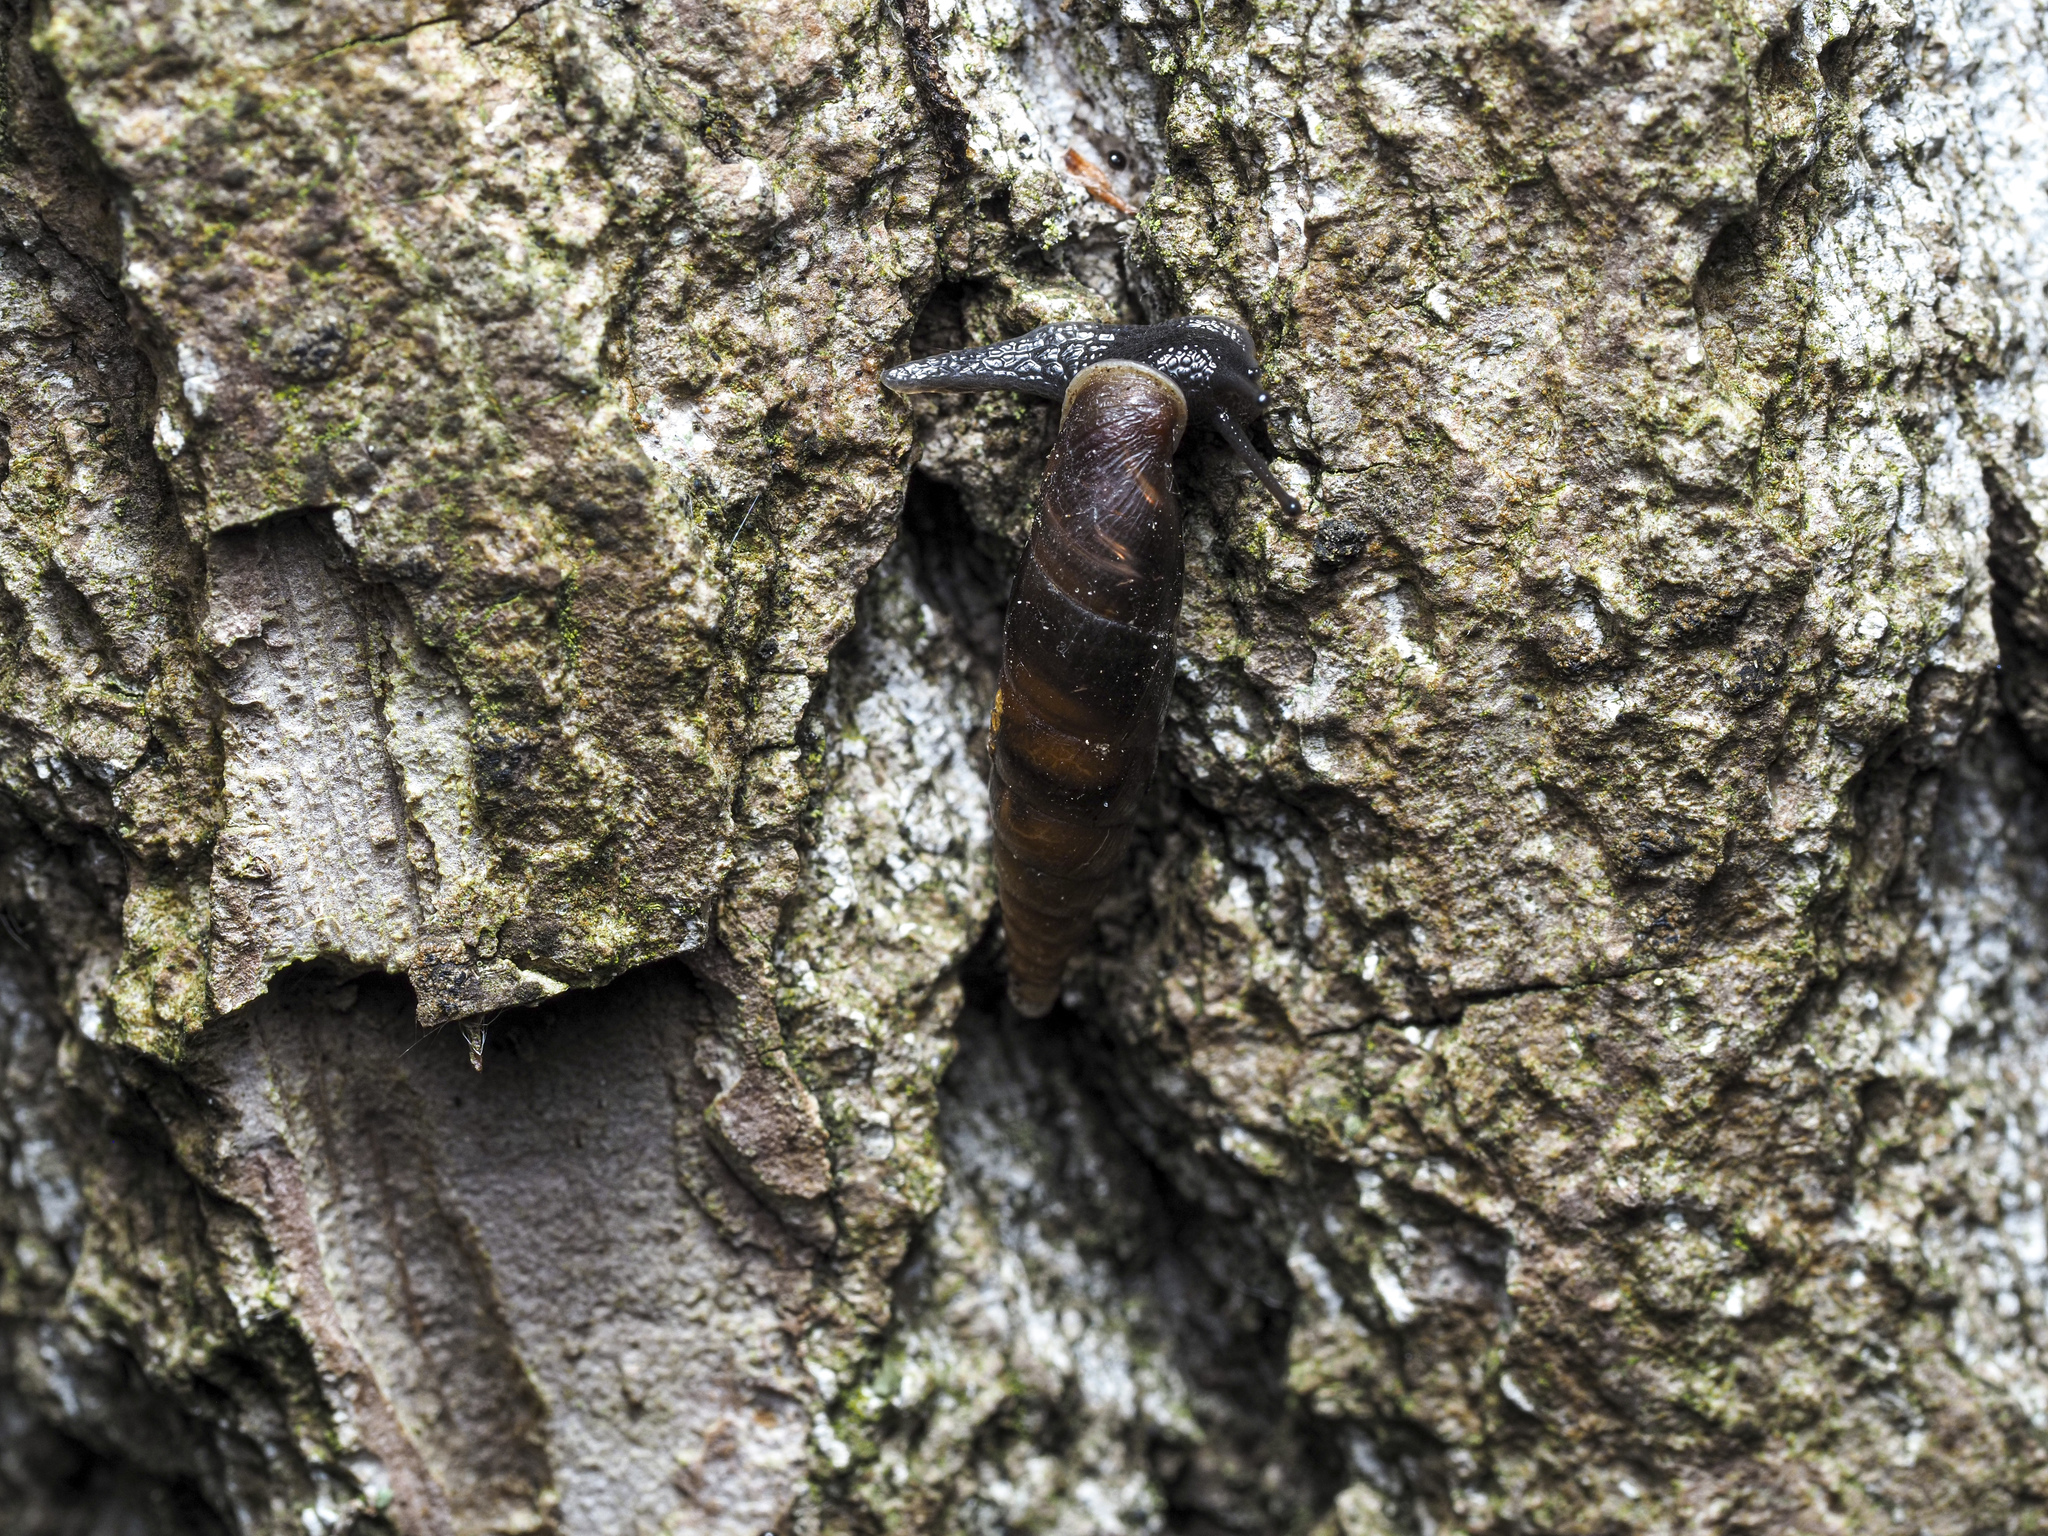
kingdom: Animalia
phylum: Mollusca
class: Gastropoda
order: Stylommatophora
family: Clausiliidae
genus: Cochlodina
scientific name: Cochlodina laminata
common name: Plaited door snail
